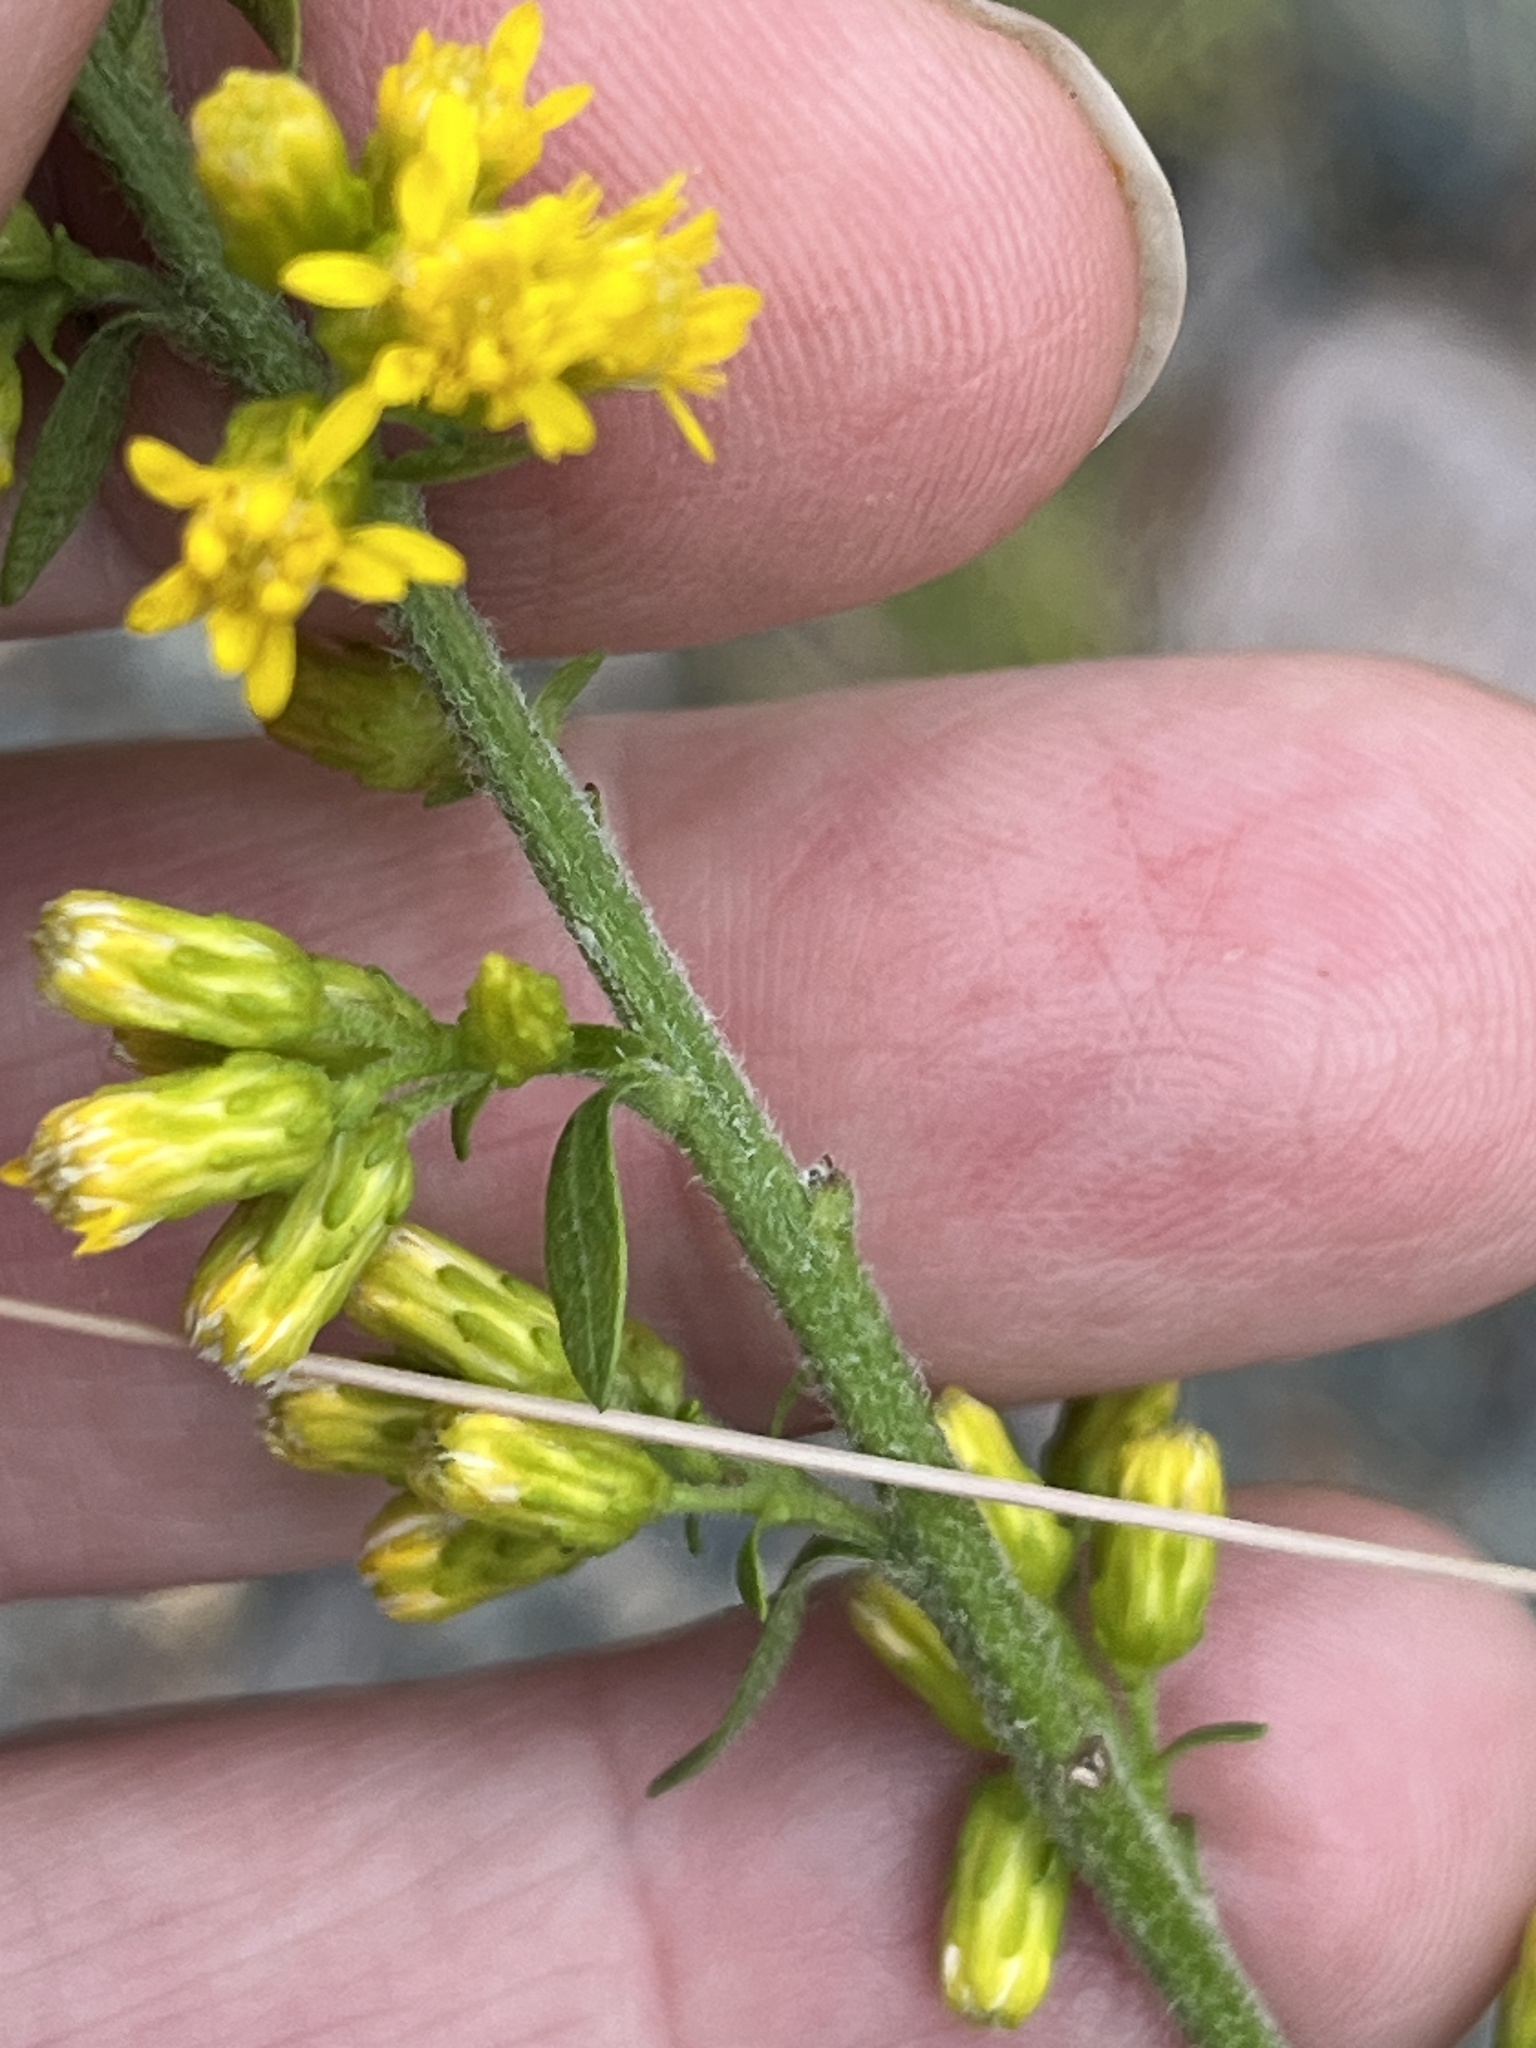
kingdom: Plantae
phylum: Tracheophyta
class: Magnoliopsida
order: Asterales
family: Asteraceae
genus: Solidago
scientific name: Solidago hispida
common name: Hairy goldenrod
